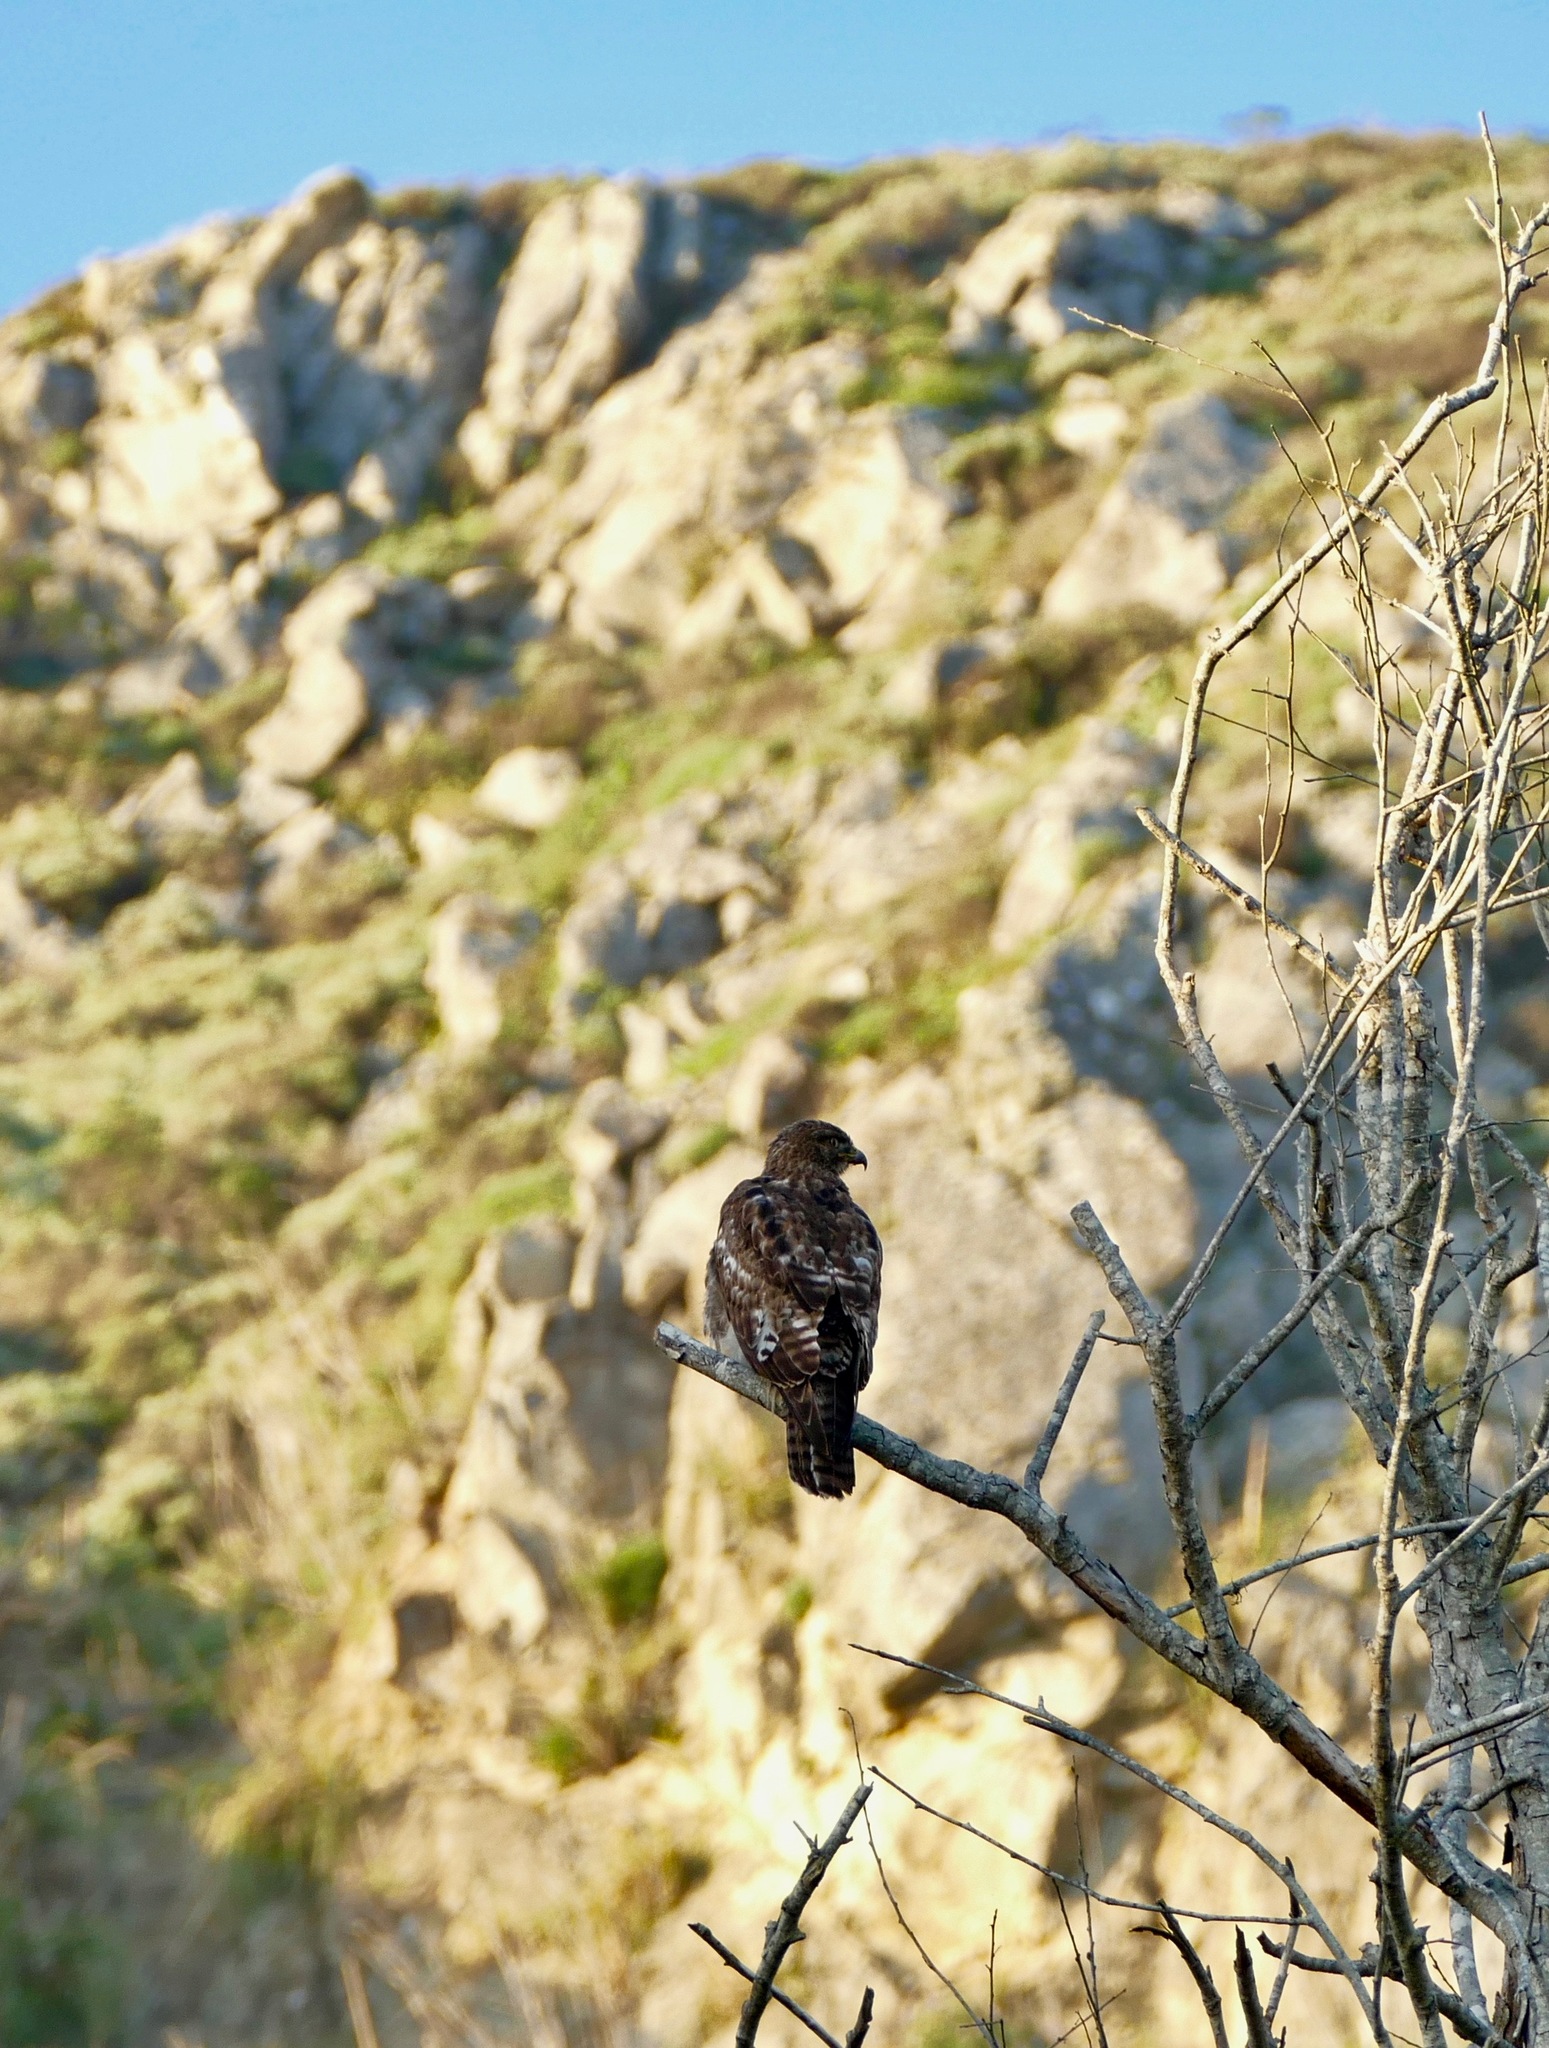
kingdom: Animalia
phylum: Chordata
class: Aves
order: Accipitriformes
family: Accipitridae
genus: Buteo
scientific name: Buteo jamaicensis
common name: Red-tailed hawk
